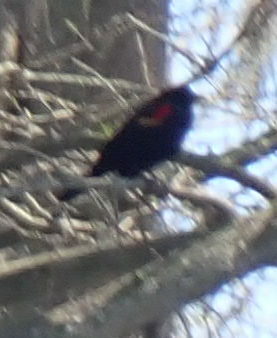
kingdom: Animalia
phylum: Chordata
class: Aves
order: Passeriformes
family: Icteridae
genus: Agelaius
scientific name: Agelaius phoeniceus
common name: Red-winged blackbird
